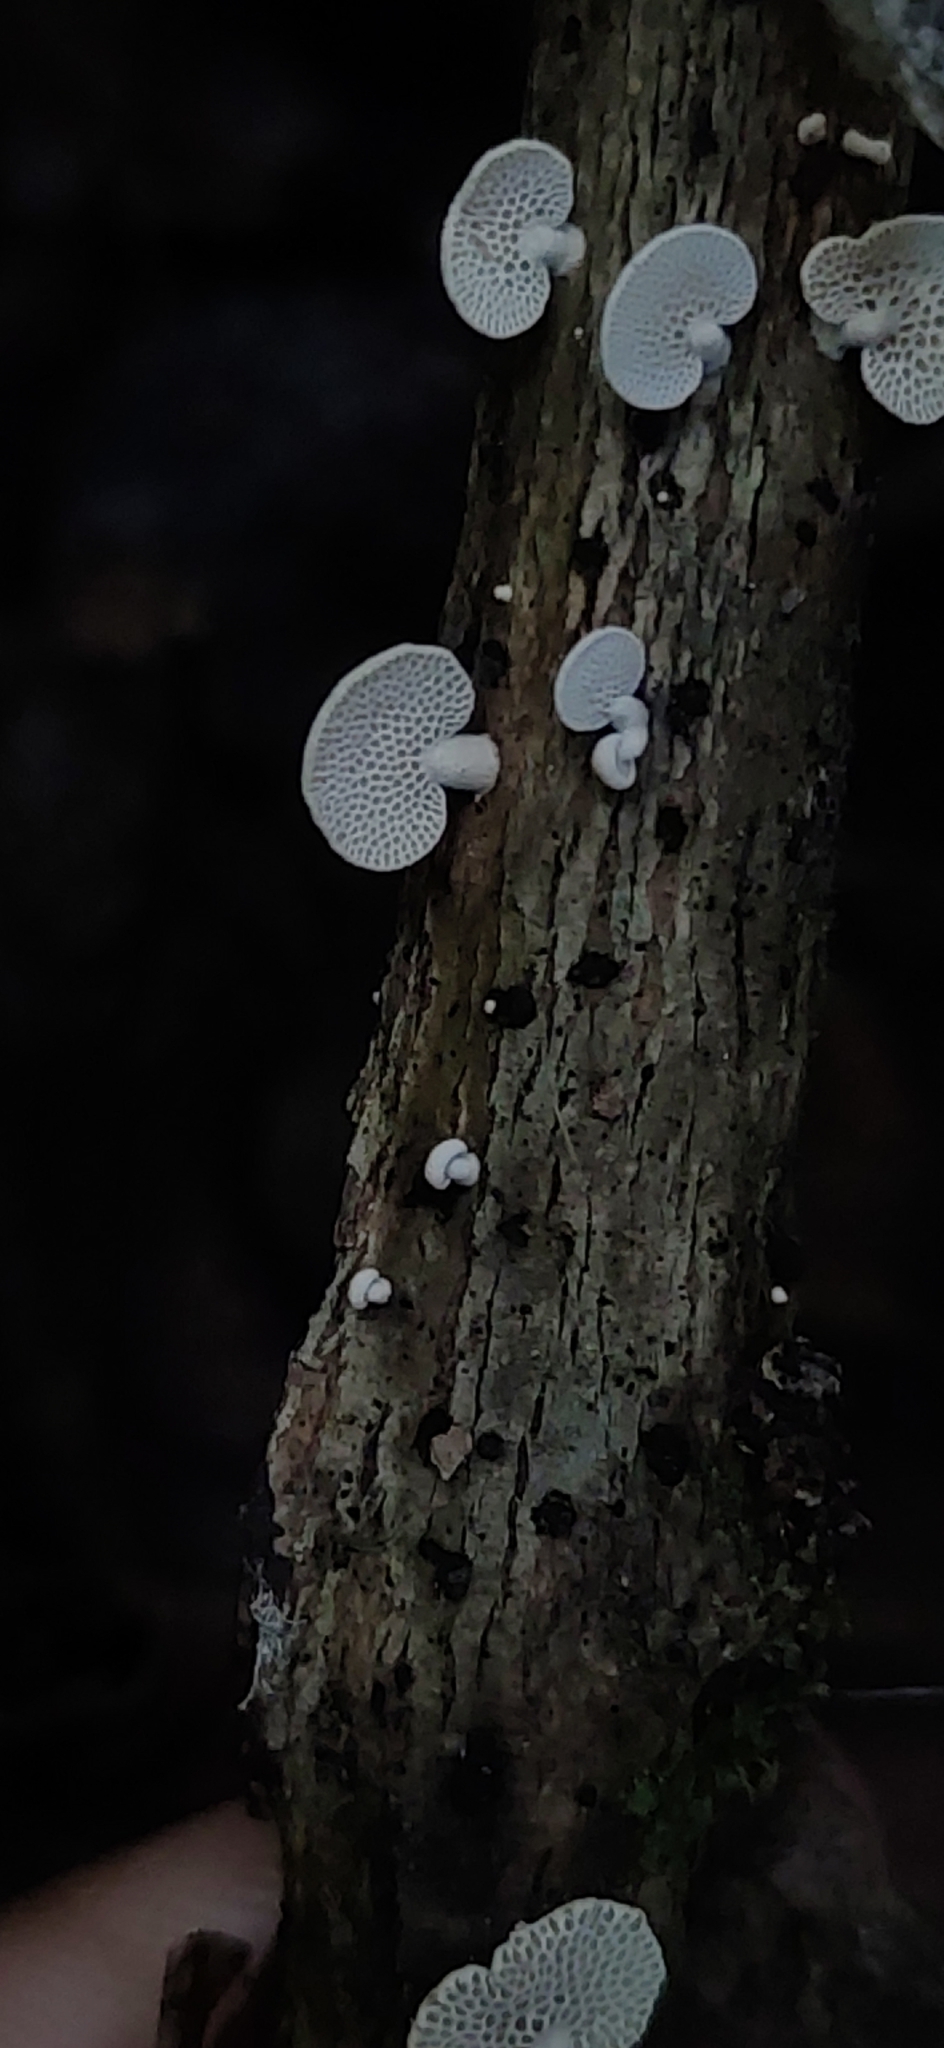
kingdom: Fungi
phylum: Basidiomycota
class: Agaricomycetes
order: Agaricales
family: Mycenaceae
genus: Panellus
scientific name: Panellus pusillus
